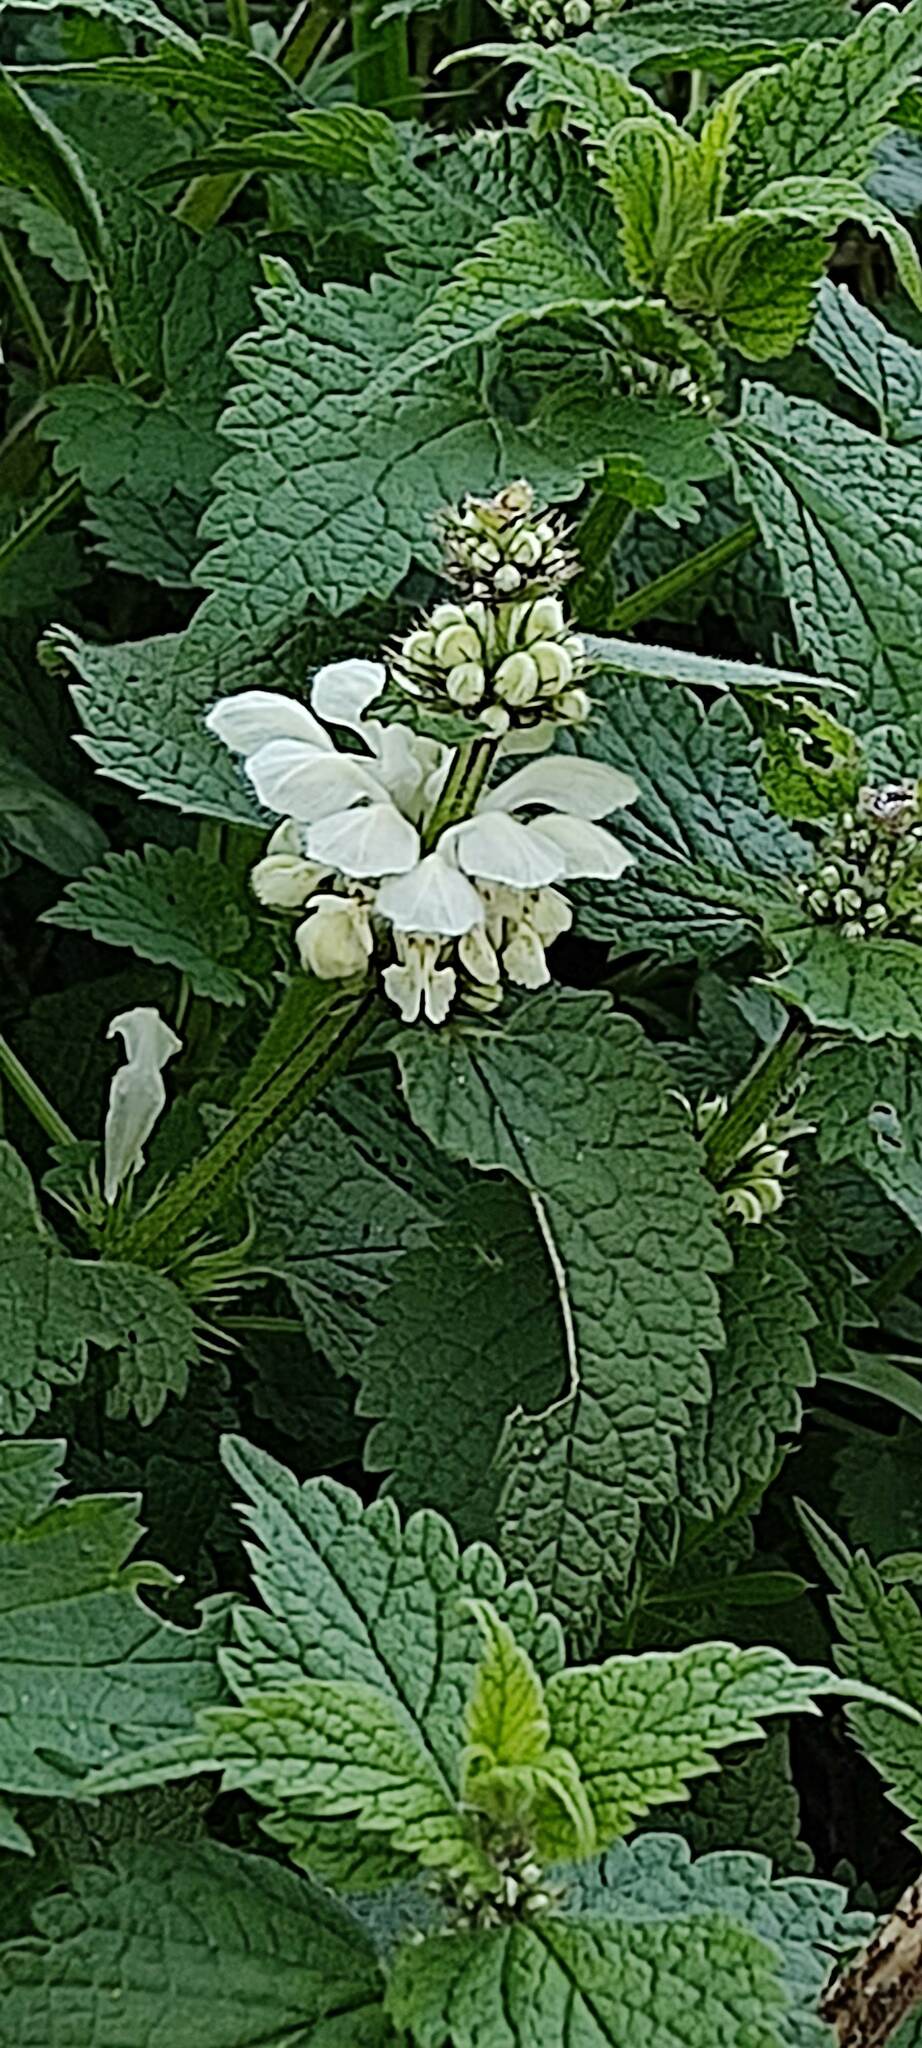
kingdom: Plantae
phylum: Tracheophyta
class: Magnoliopsida
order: Lamiales
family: Lamiaceae
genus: Lamium
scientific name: Lamium album
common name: White dead-nettle
